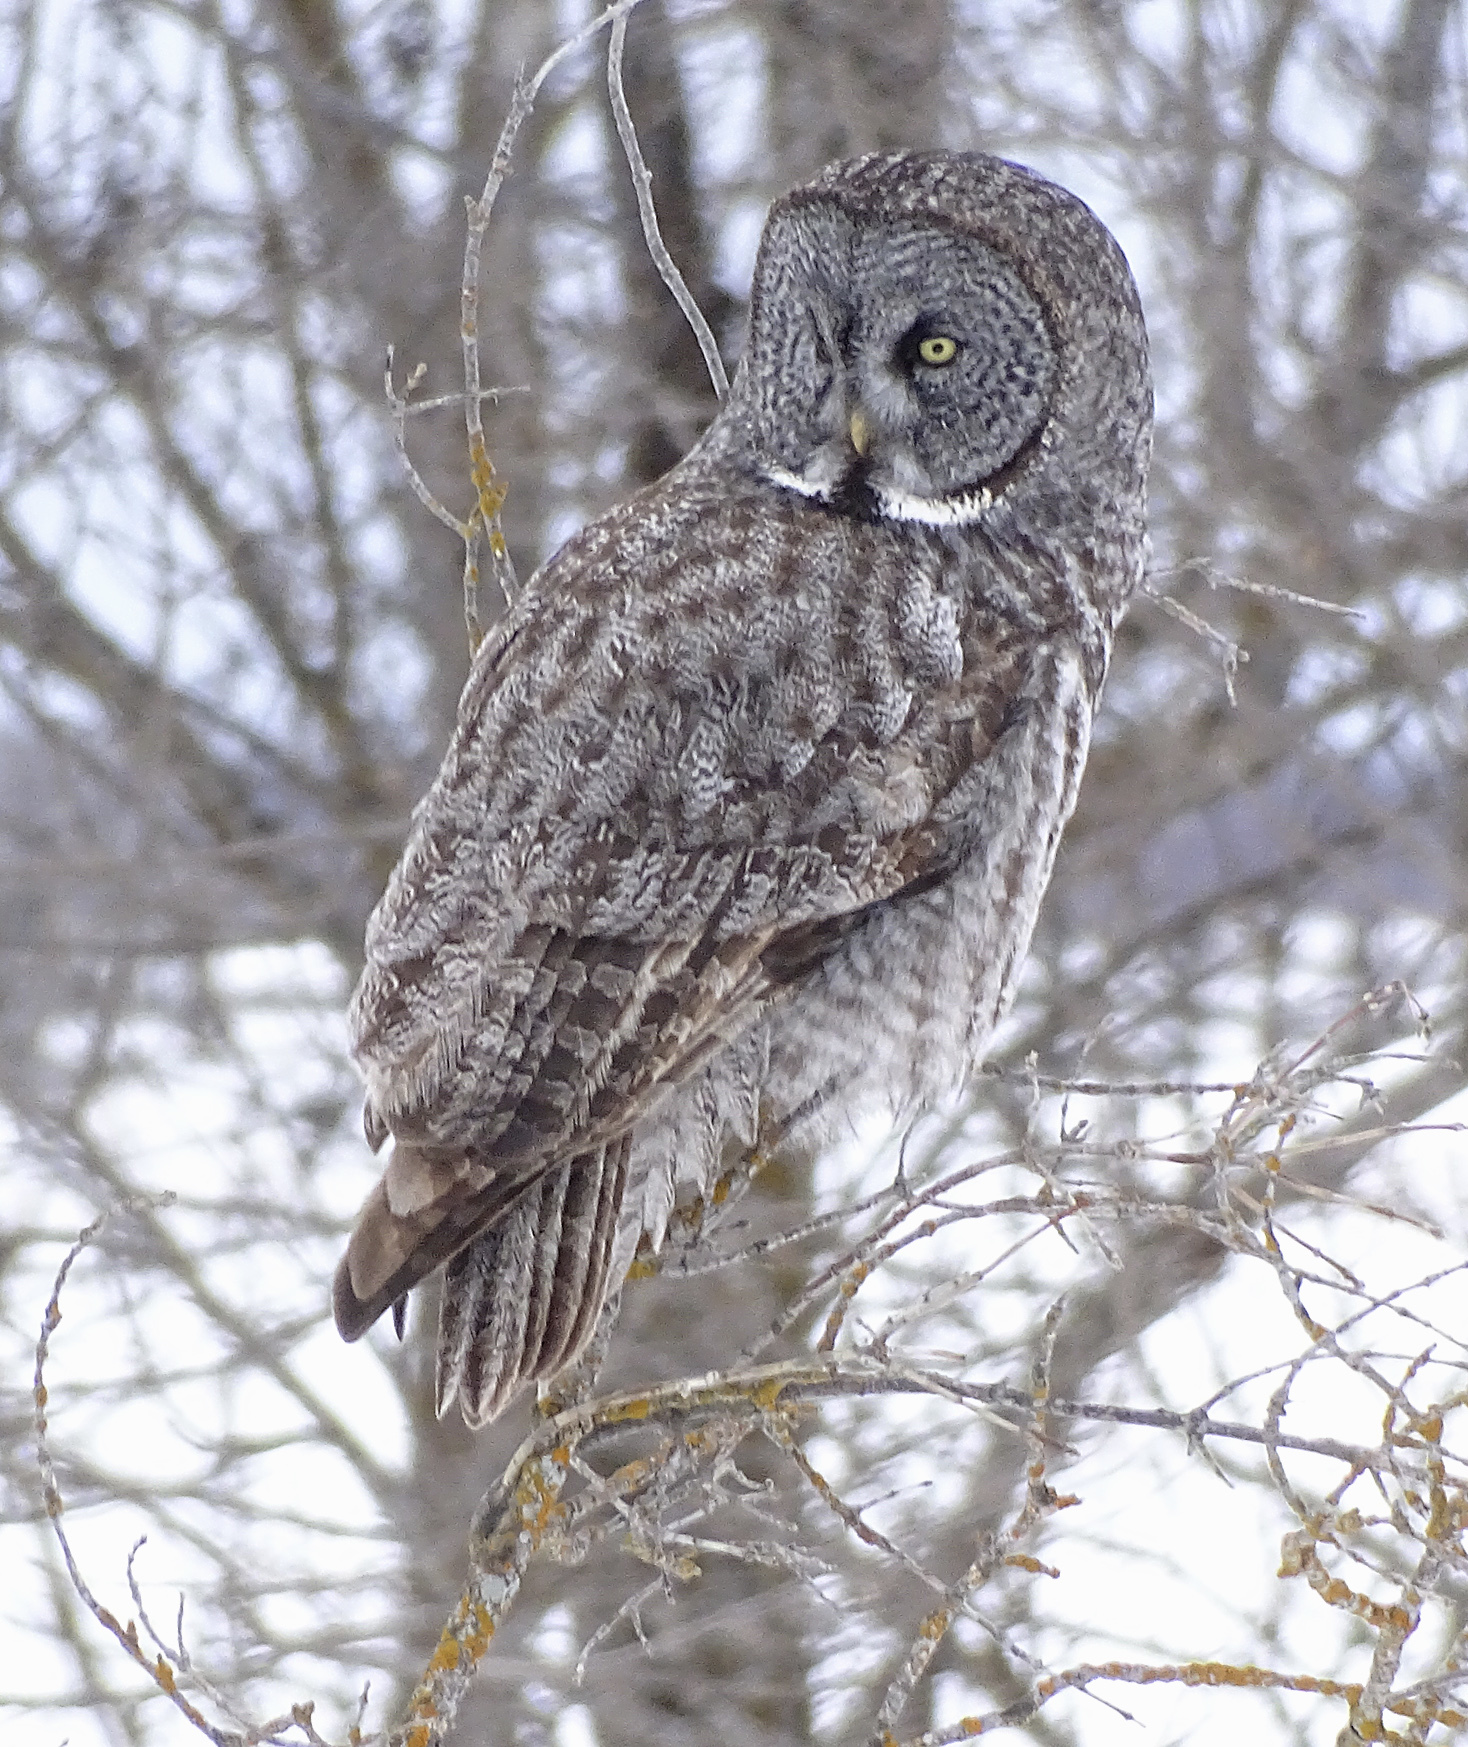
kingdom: Animalia
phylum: Chordata
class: Aves
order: Strigiformes
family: Strigidae
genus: Strix
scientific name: Strix nebulosa
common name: Great grey owl
